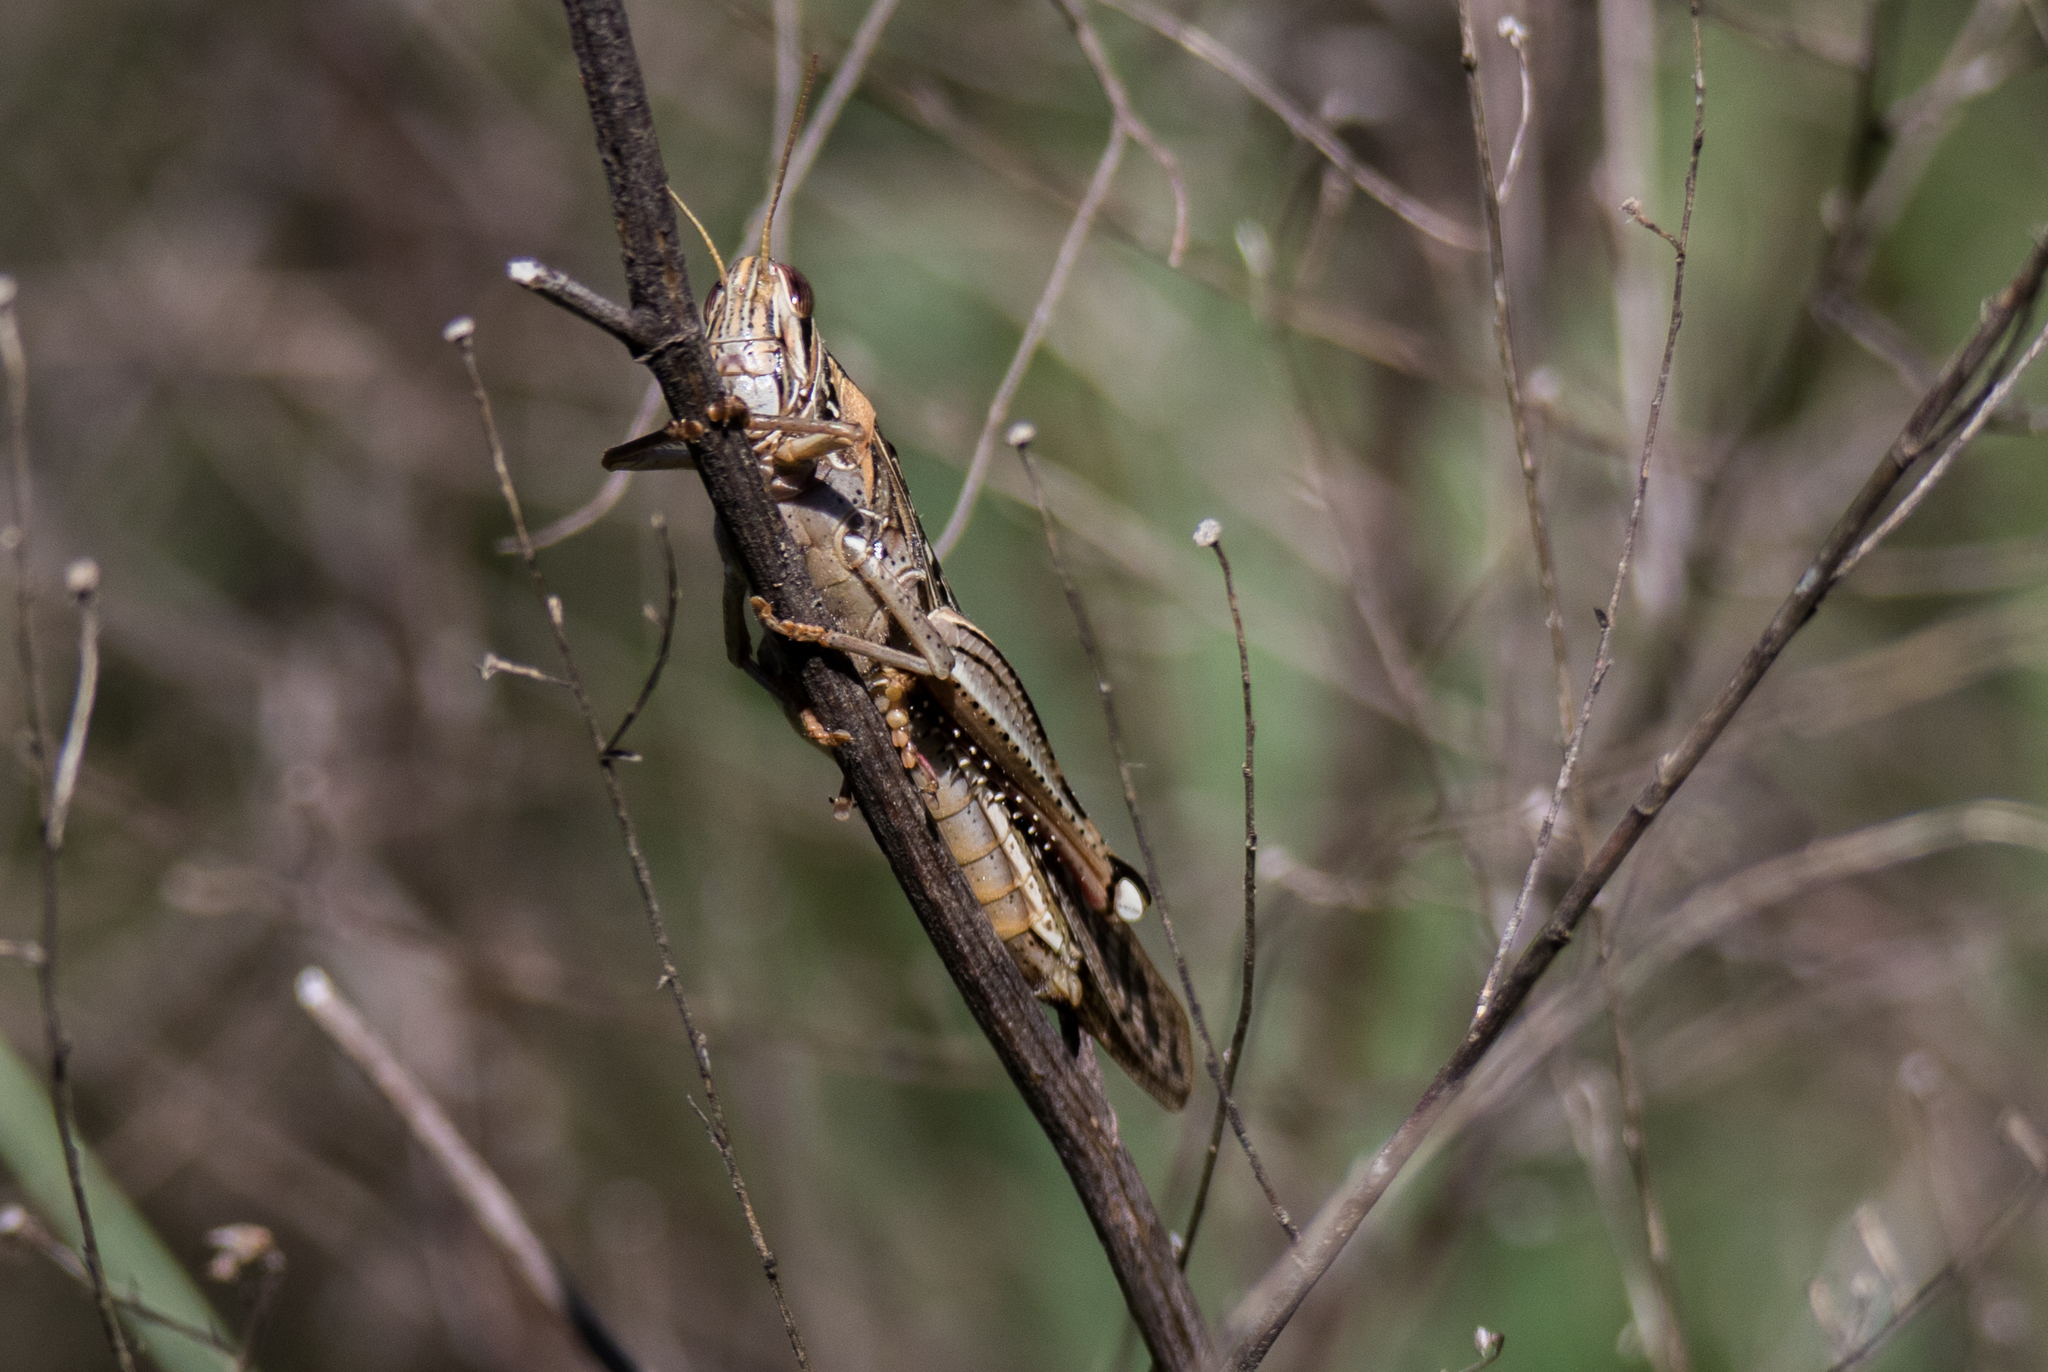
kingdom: Animalia
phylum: Arthropoda
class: Insecta
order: Orthoptera
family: Acrididae
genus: Schistocerca
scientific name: Schistocerca americana
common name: American bird locust
